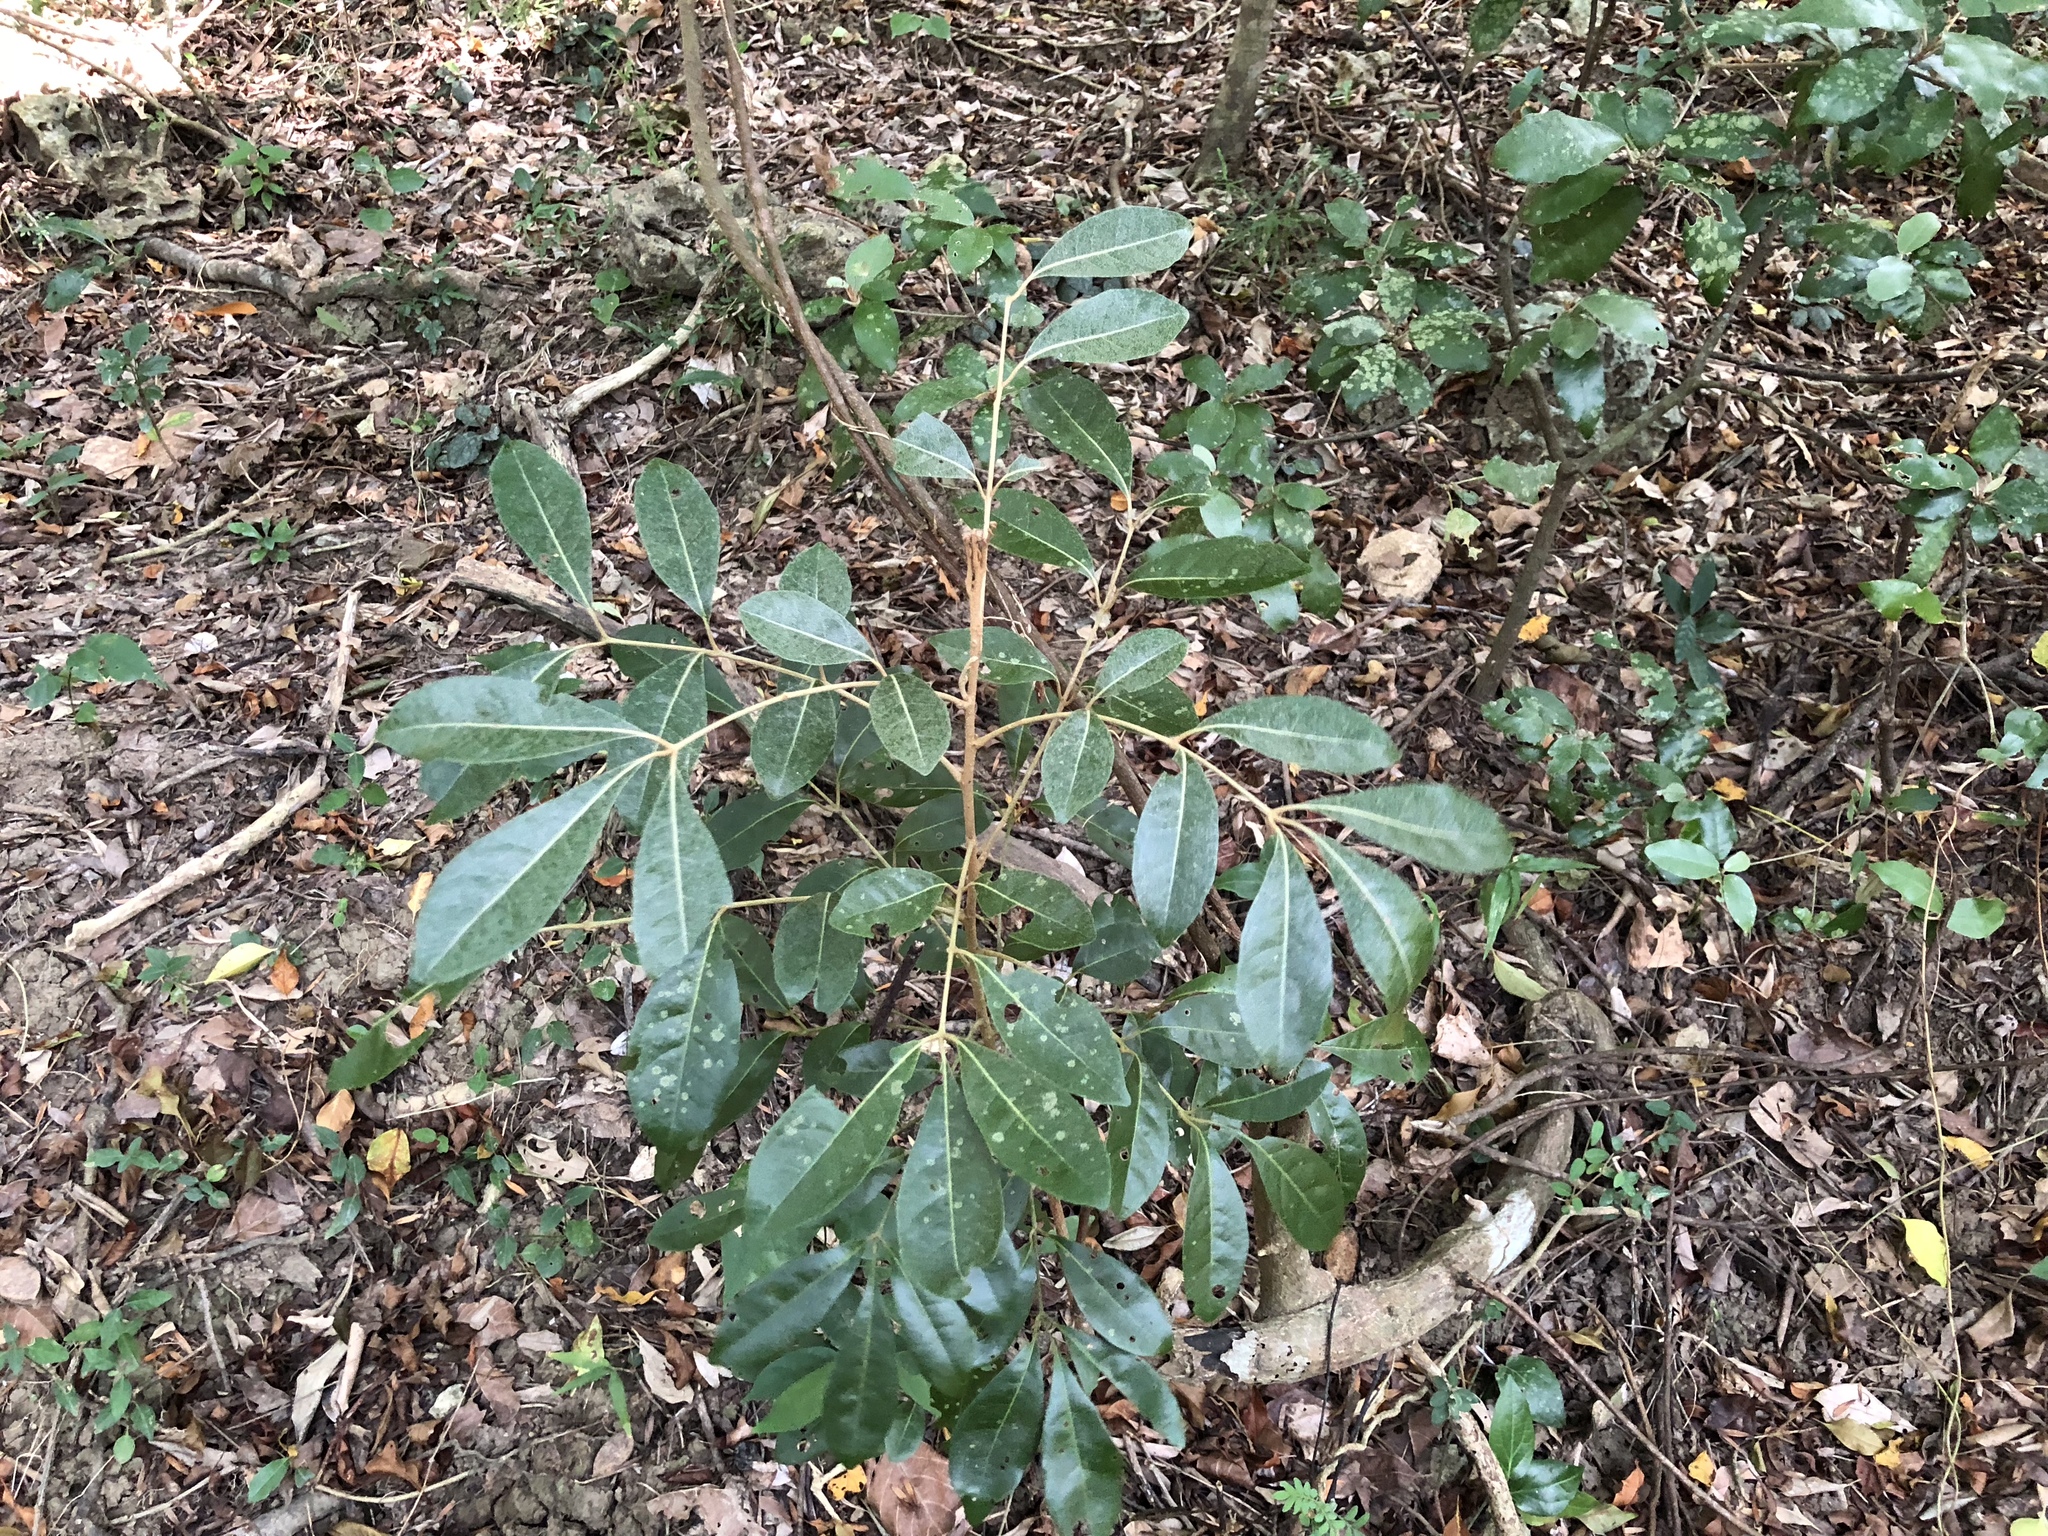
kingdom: Plantae
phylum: Tracheophyta
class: Magnoliopsida
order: Sapindales
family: Meliaceae
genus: Aglaia
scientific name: Aglaia elaeagnoidea
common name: Droopyleaf
